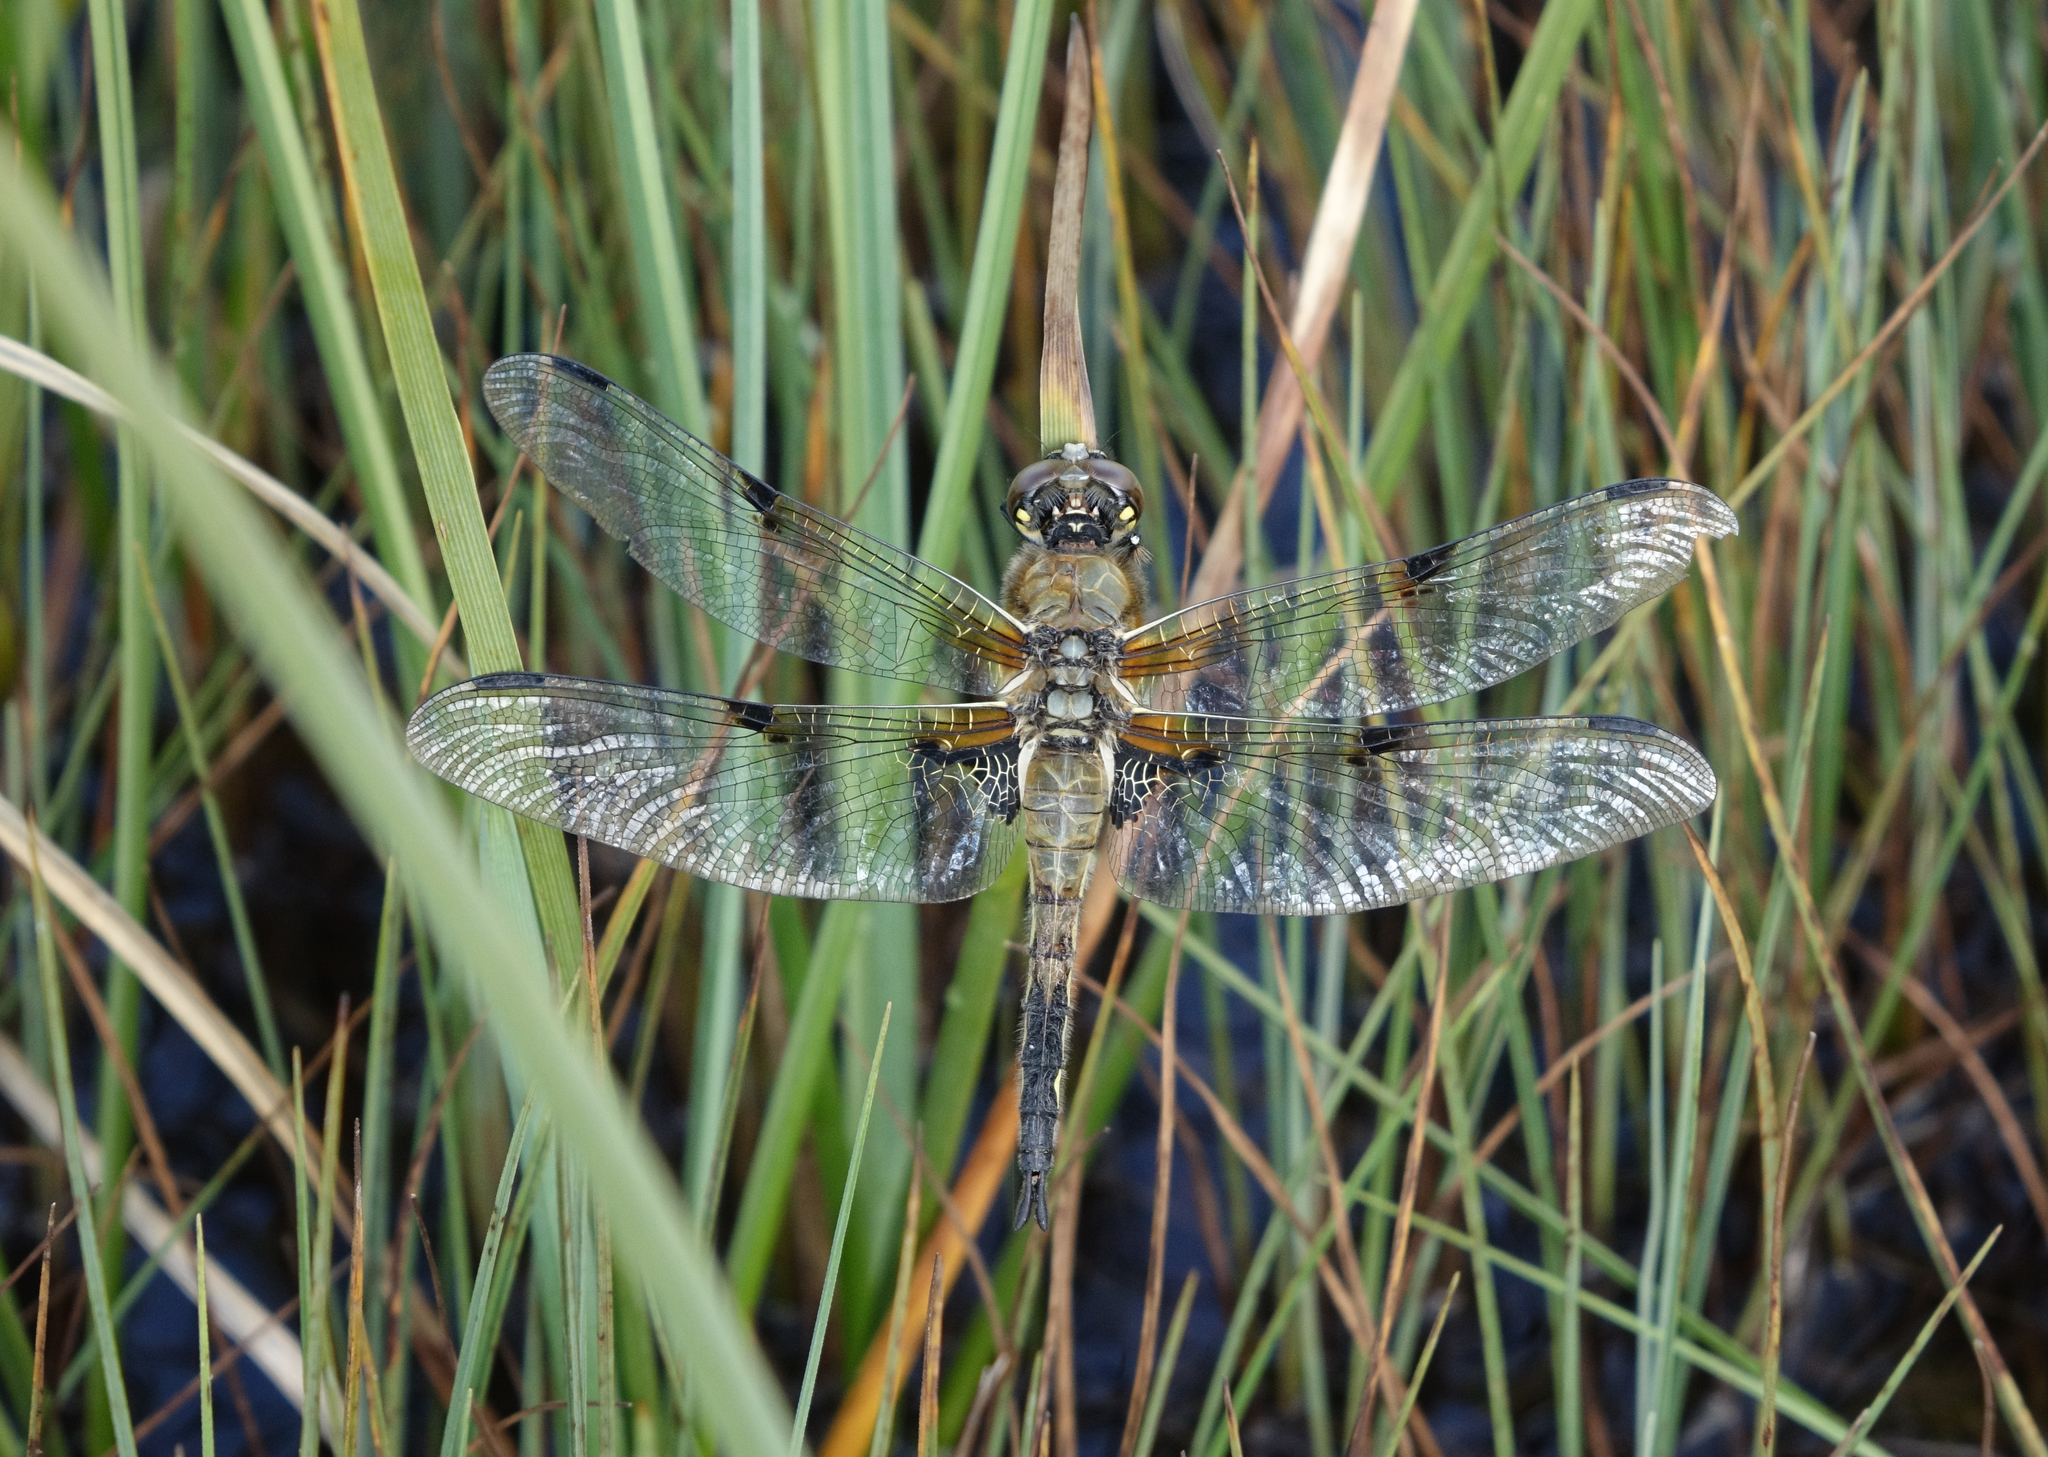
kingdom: Animalia
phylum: Arthropoda
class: Insecta
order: Odonata
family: Libellulidae
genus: Libellula
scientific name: Libellula quadrimaculata
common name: Four-spotted chaser
